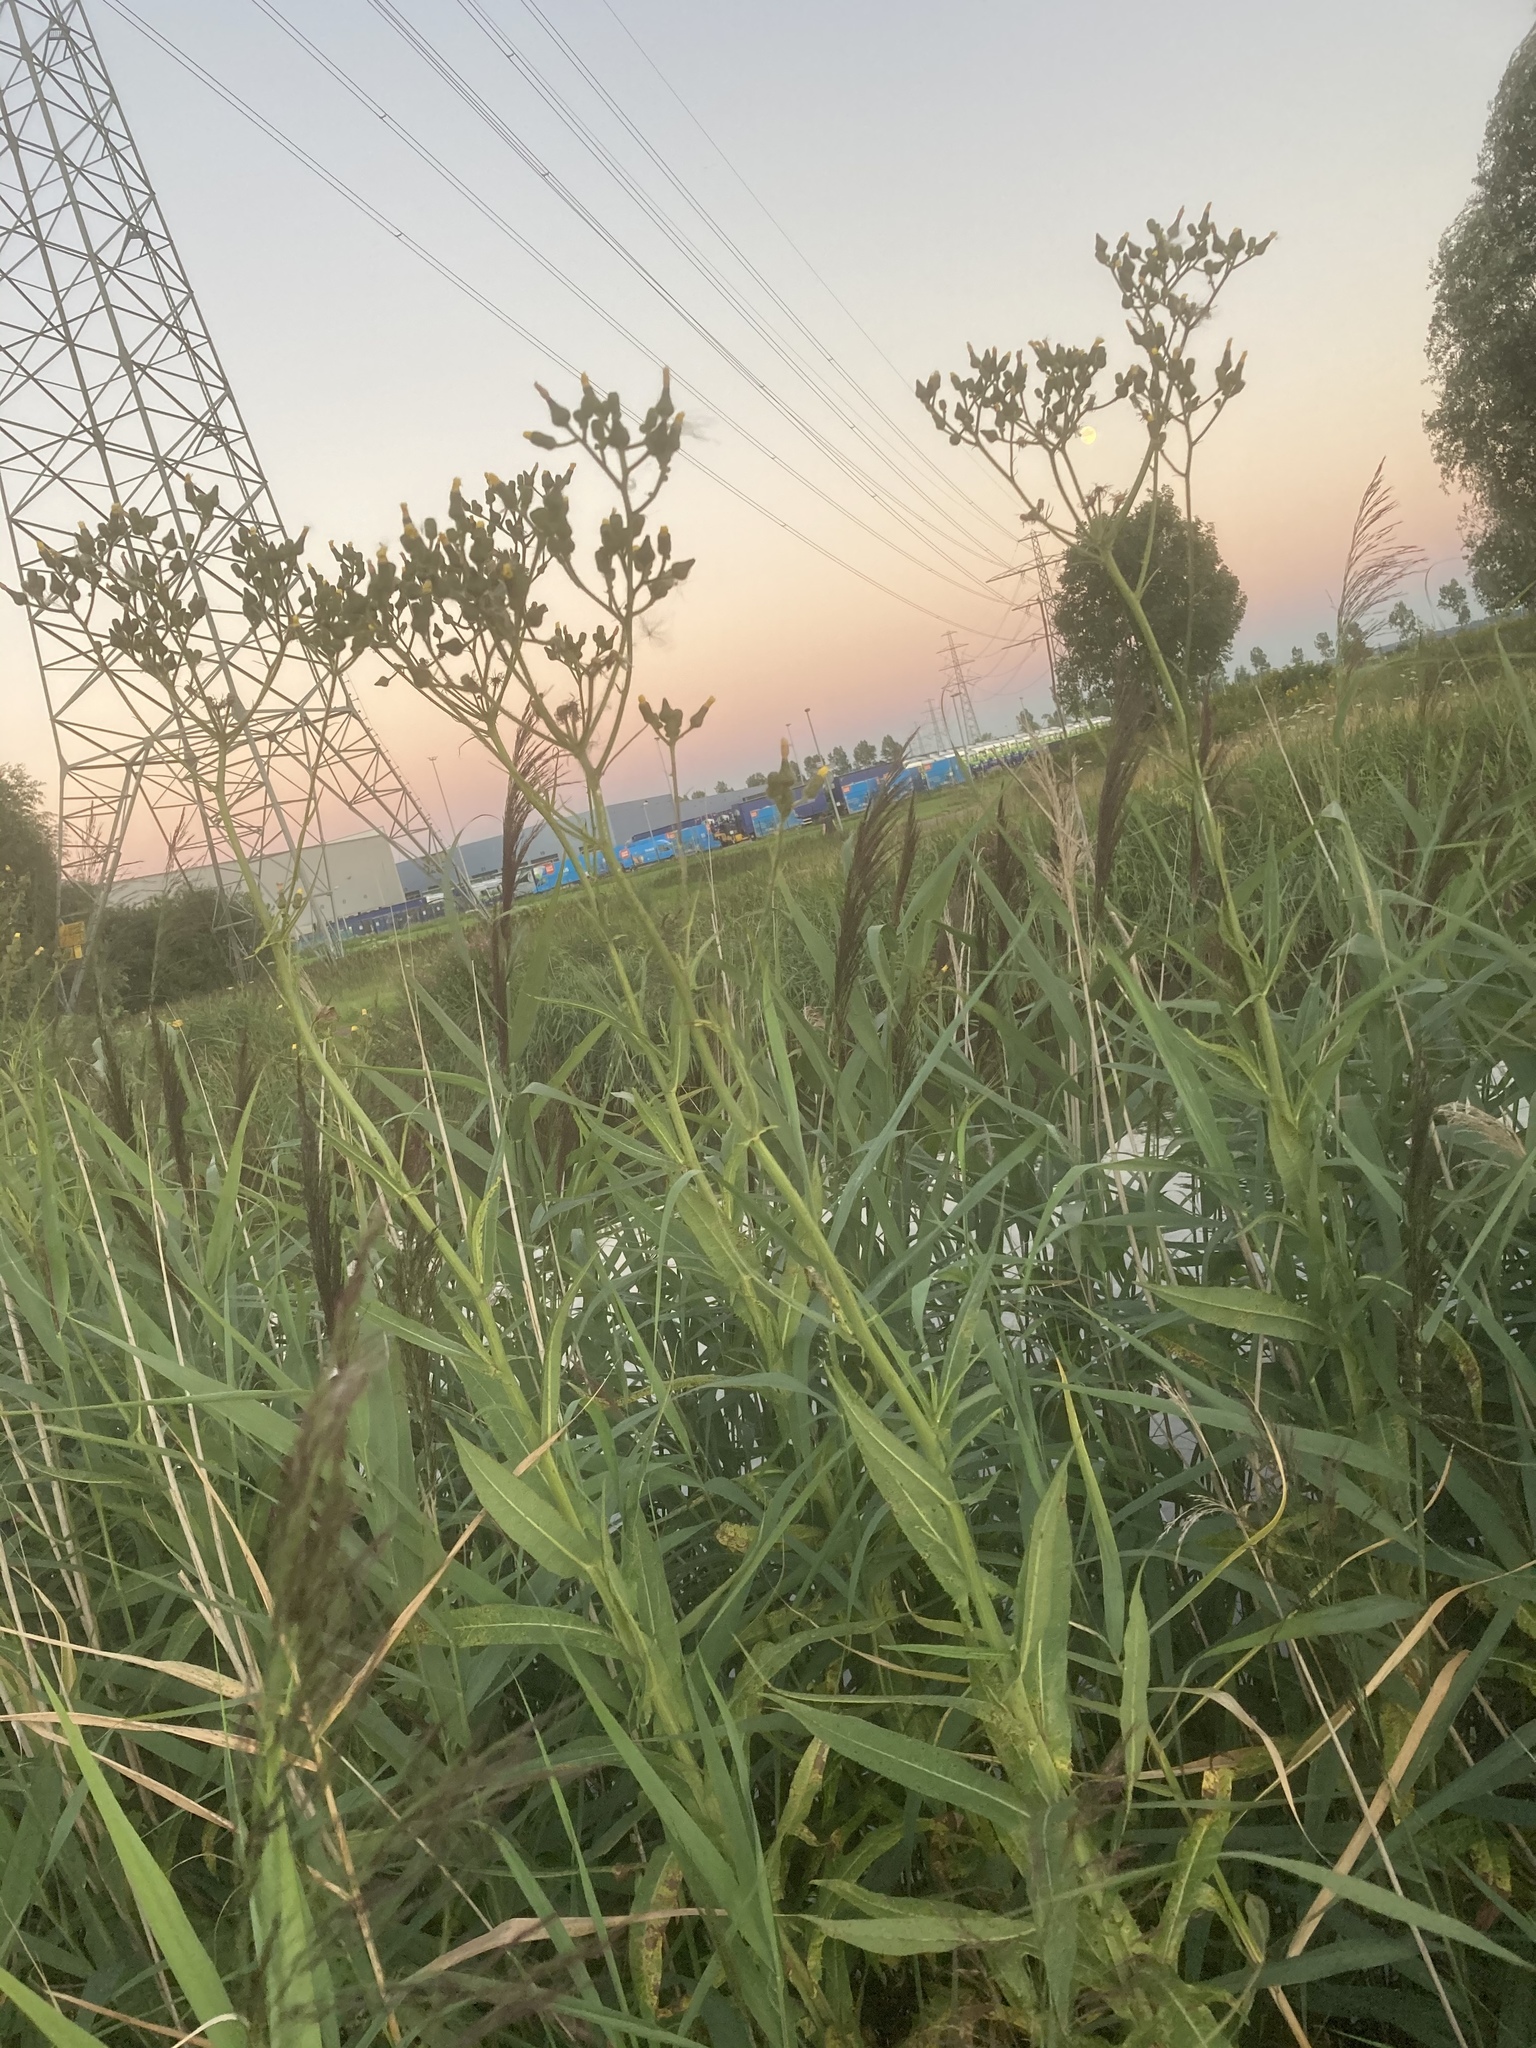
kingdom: Plantae
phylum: Tracheophyta
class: Magnoliopsida
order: Asterales
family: Asteraceae
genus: Sonchus
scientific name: Sonchus palustris
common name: Marsh sow-thistle
